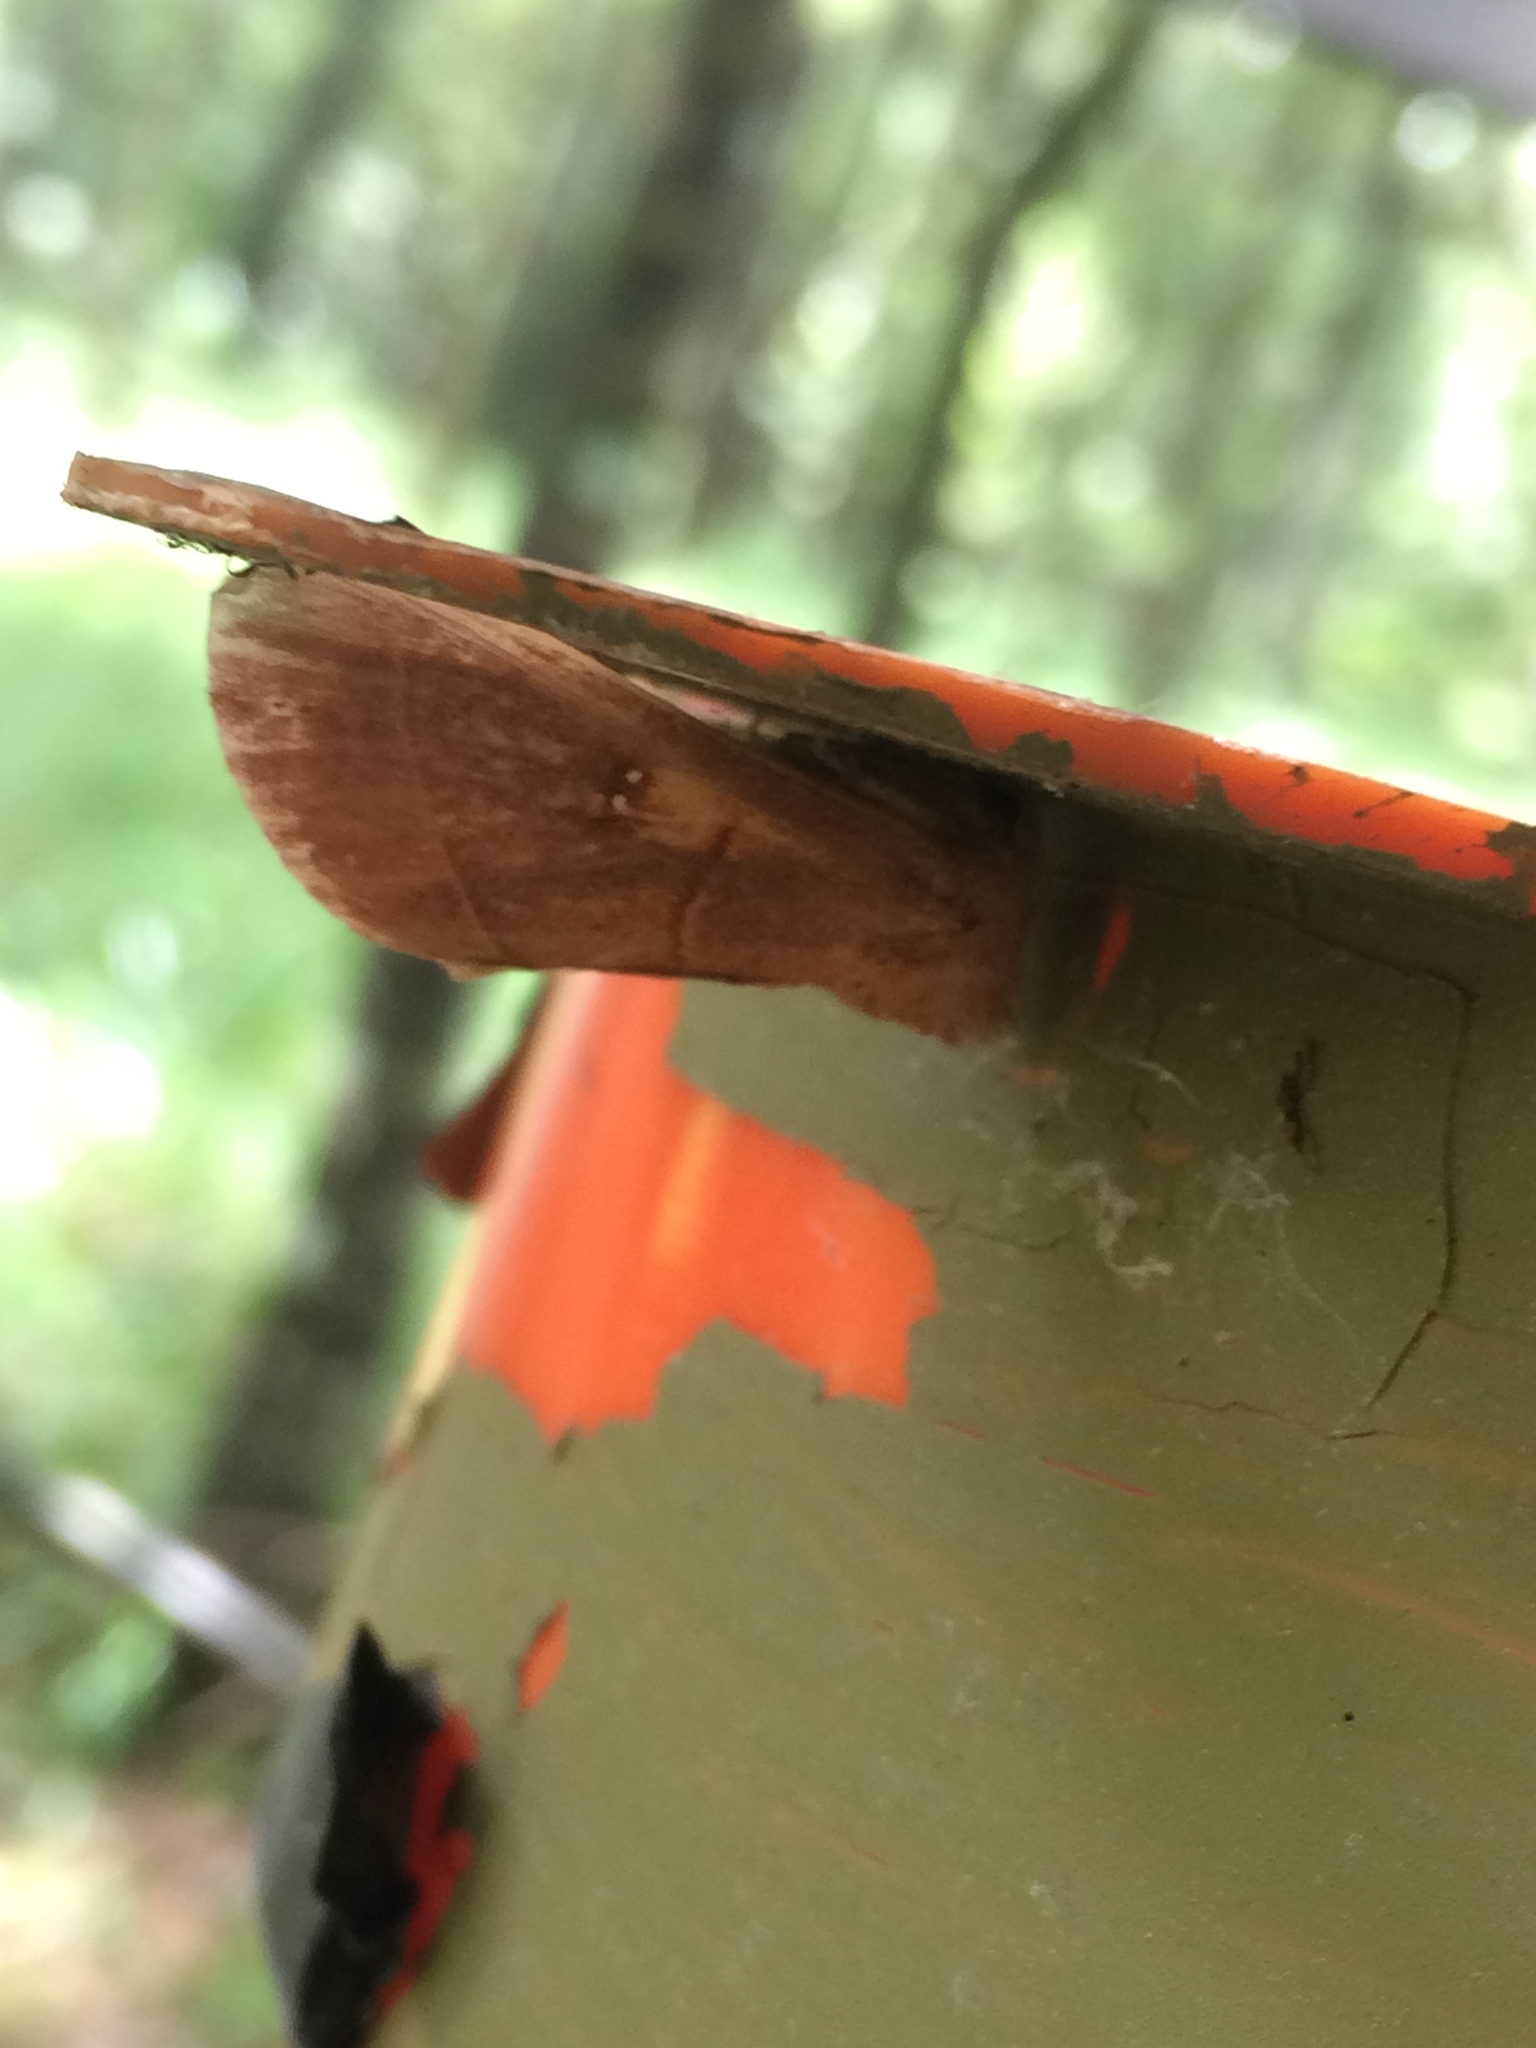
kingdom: Animalia
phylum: Arthropoda
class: Insecta
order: Lepidoptera
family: Notodontidae
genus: Nadata
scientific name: Nadata gibbosa
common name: White-dotted prominent
